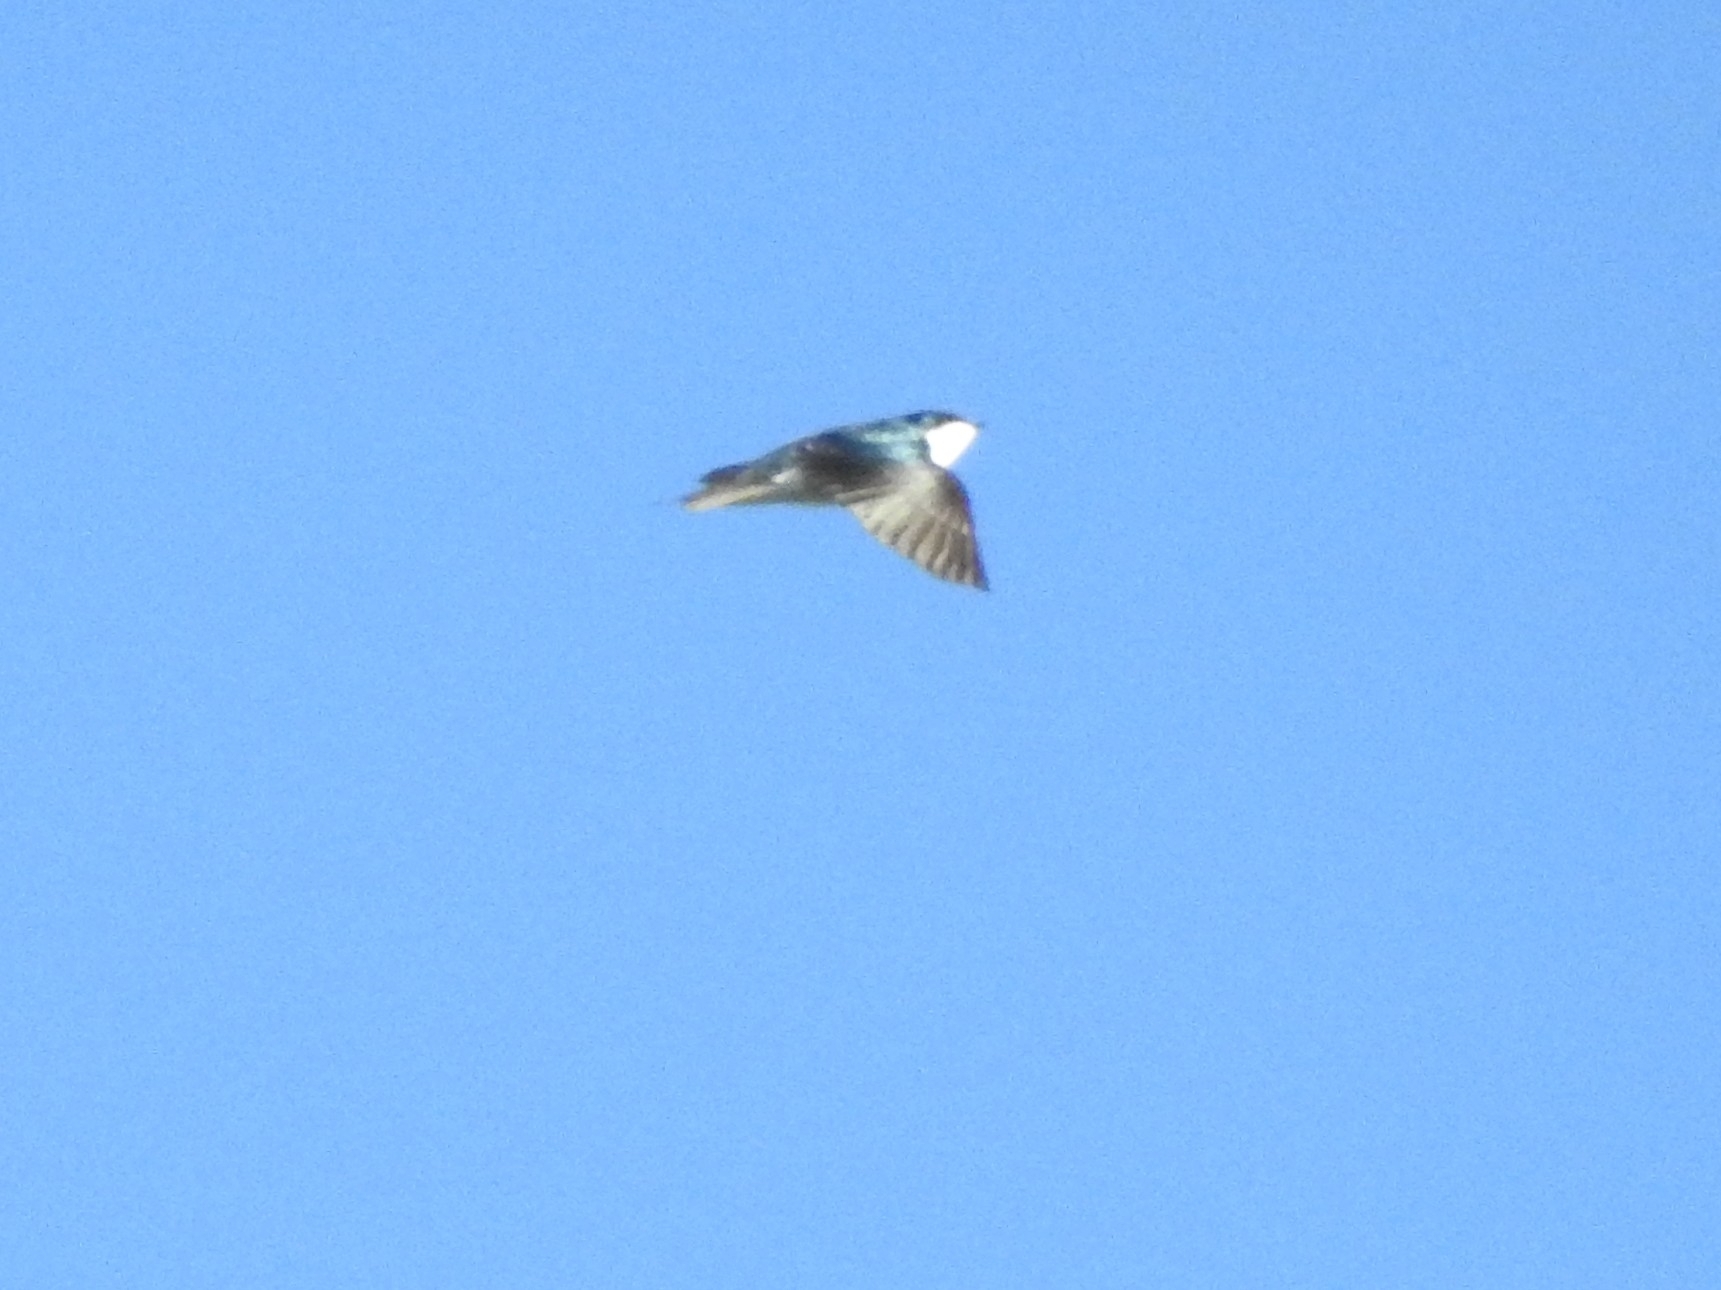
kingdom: Animalia
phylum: Chordata
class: Aves
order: Passeriformes
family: Hirundinidae
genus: Tachycineta
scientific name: Tachycineta bicolor
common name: Tree swallow
